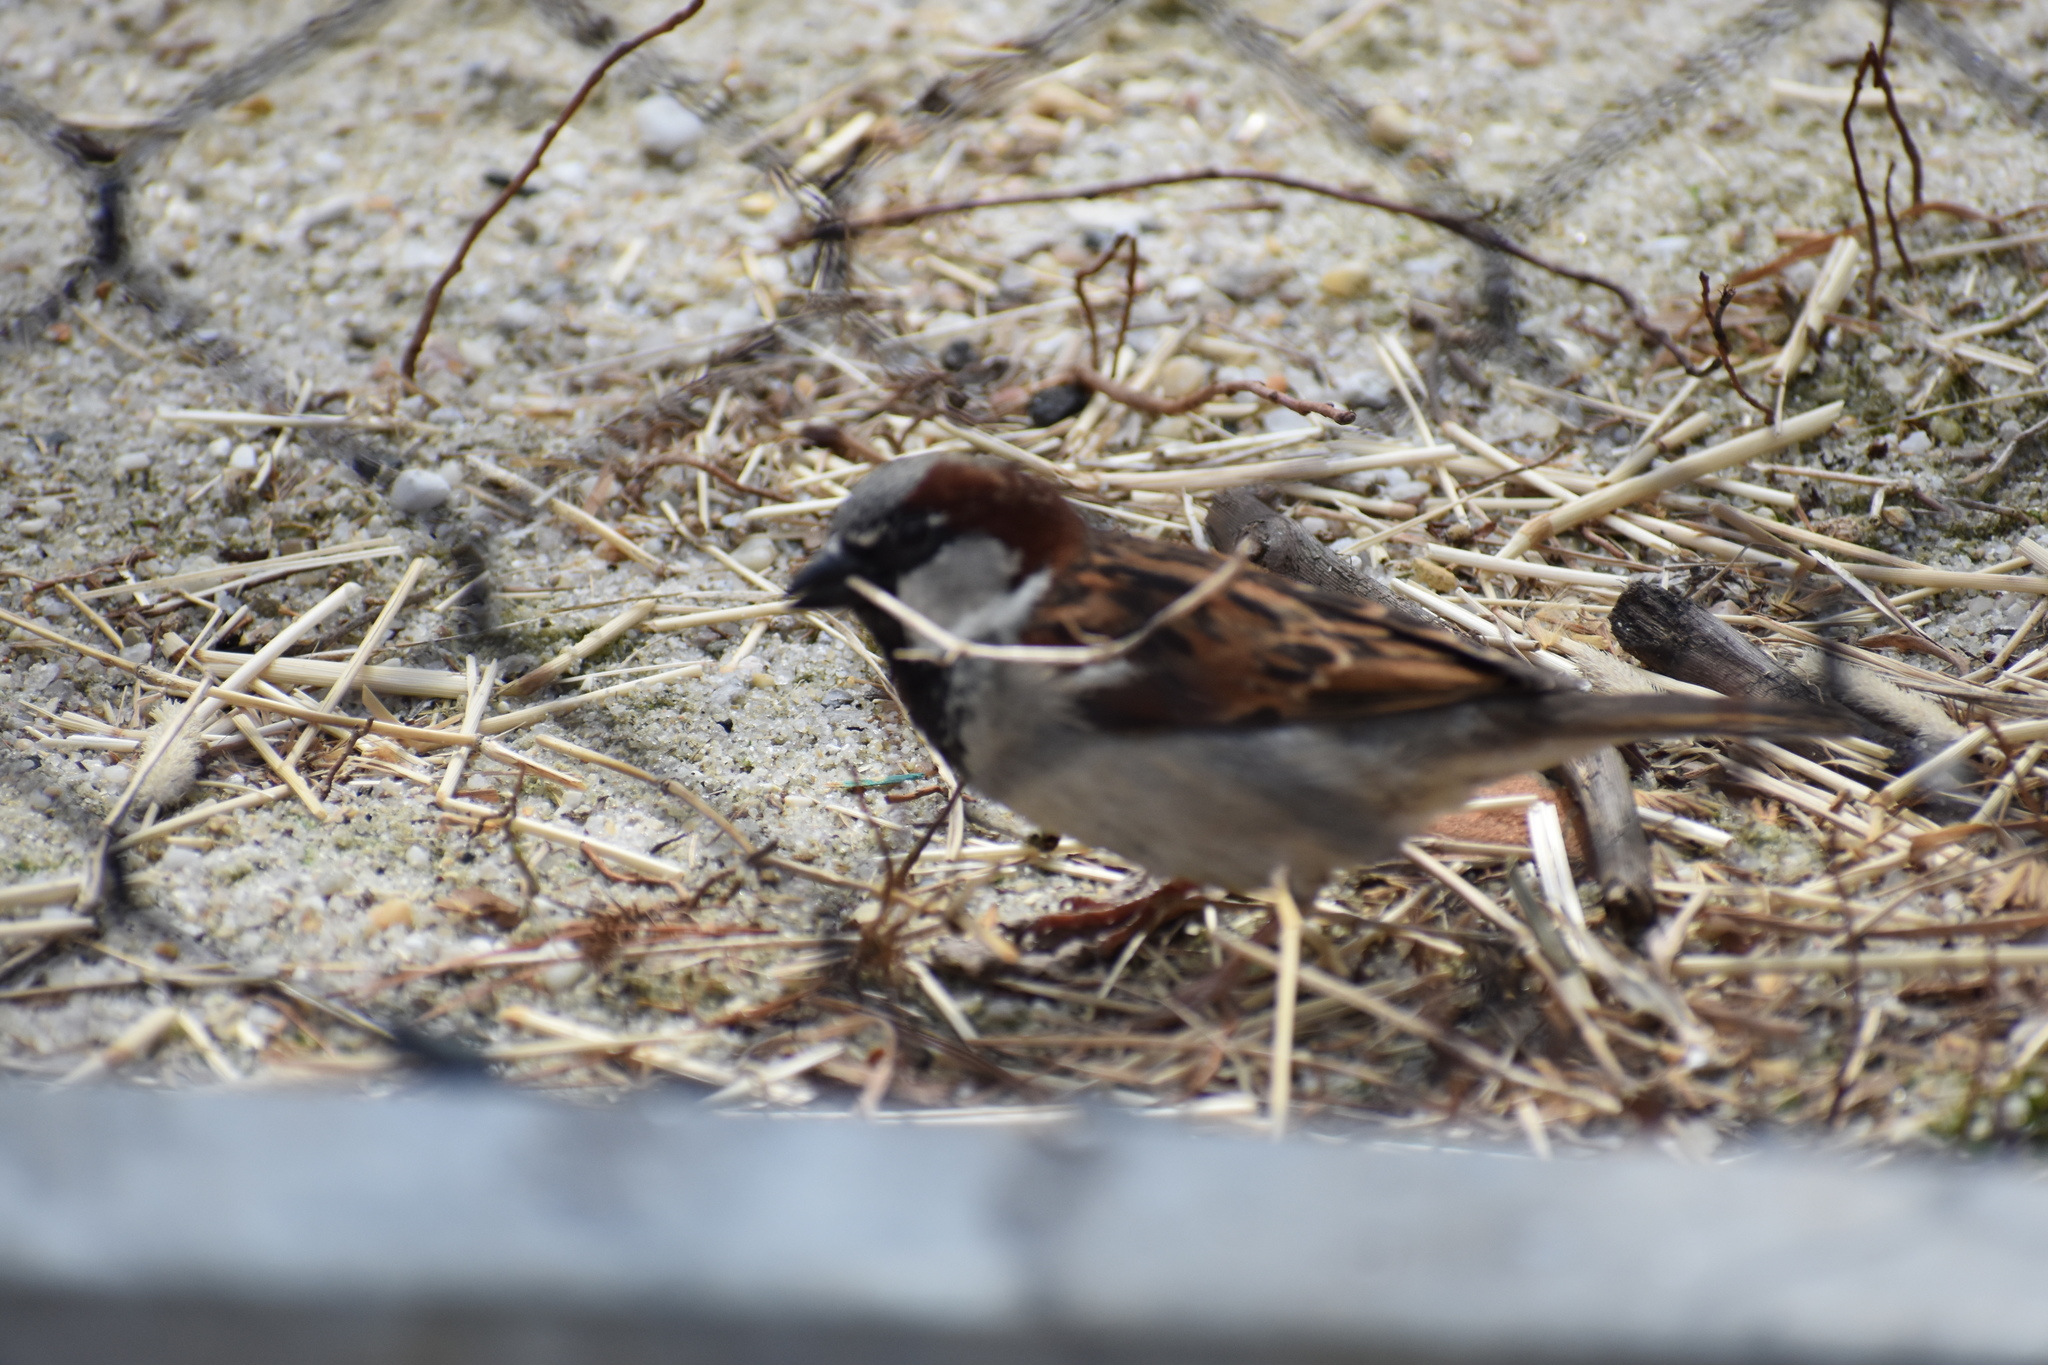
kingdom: Animalia
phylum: Chordata
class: Aves
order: Passeriformes
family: Passeridae
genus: Passer
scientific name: Passer domesticus
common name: House sparrow
